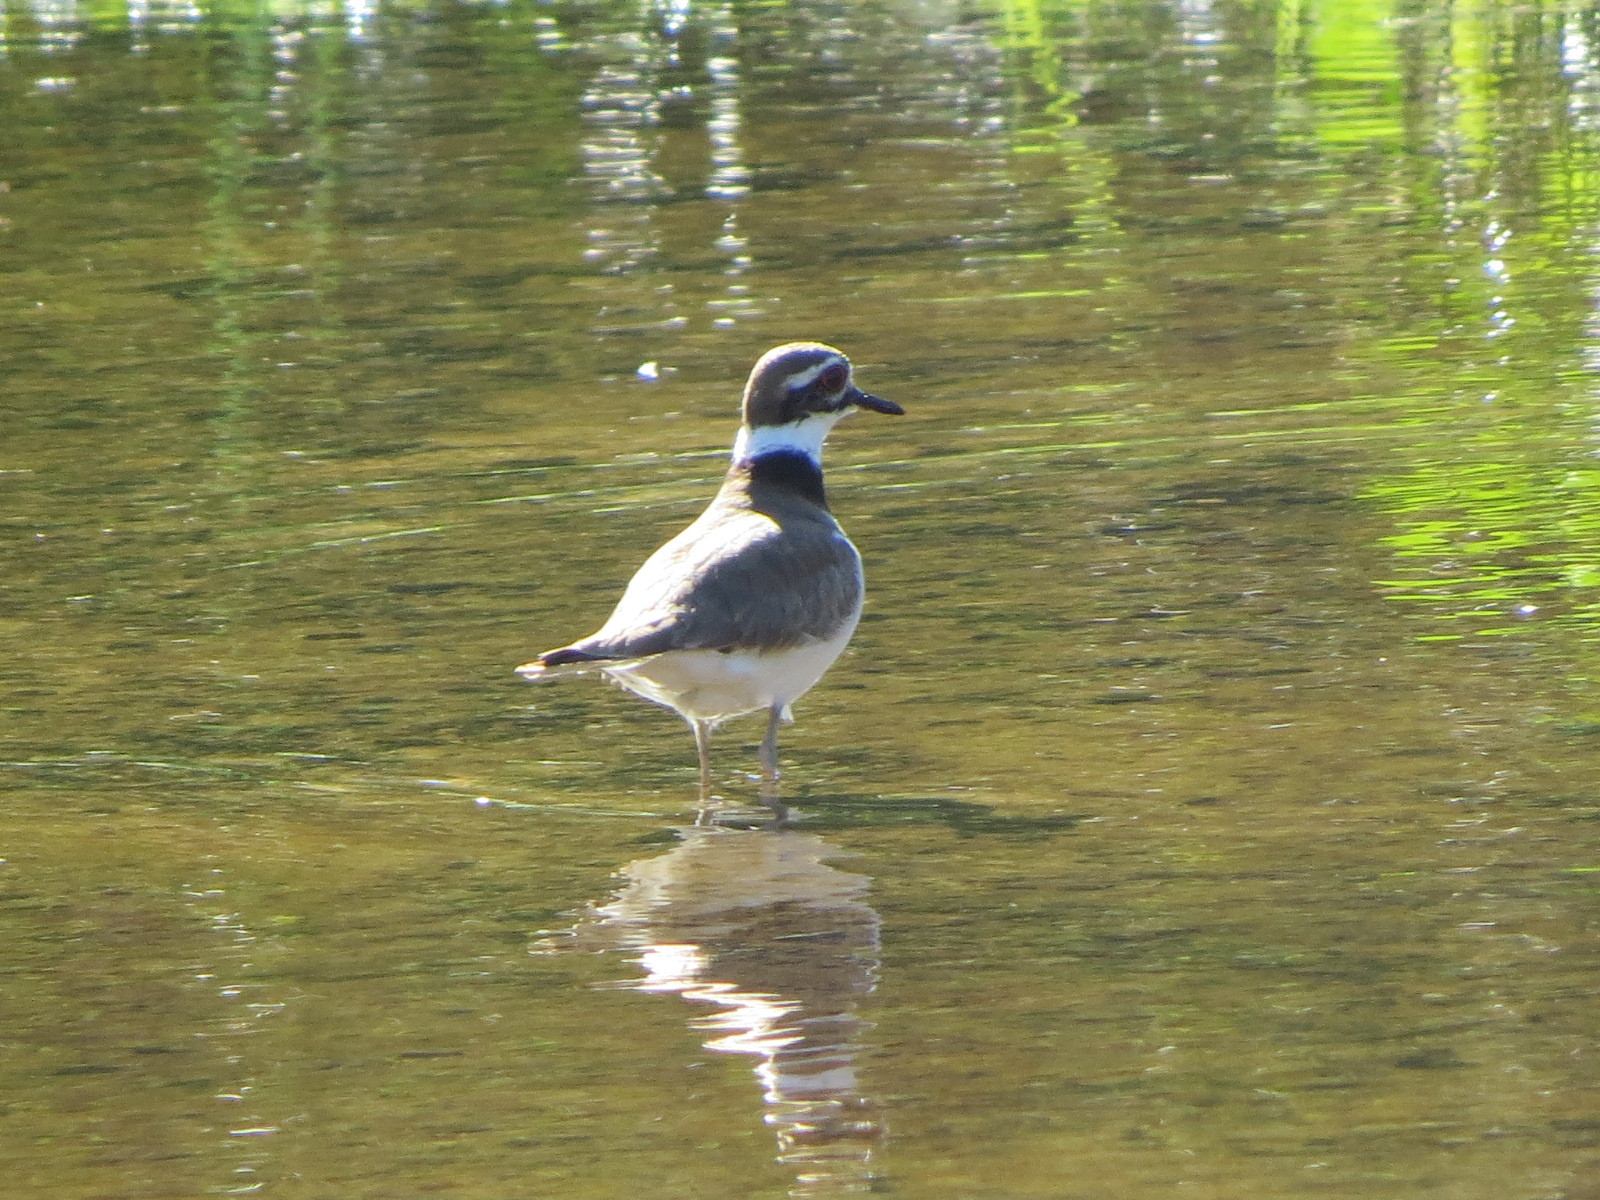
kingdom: Animalia
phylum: Chordata
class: Aves
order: Charadriiformes
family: Charadriidae
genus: Charadrius
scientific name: Charadrius vociferus
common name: Killdeer
